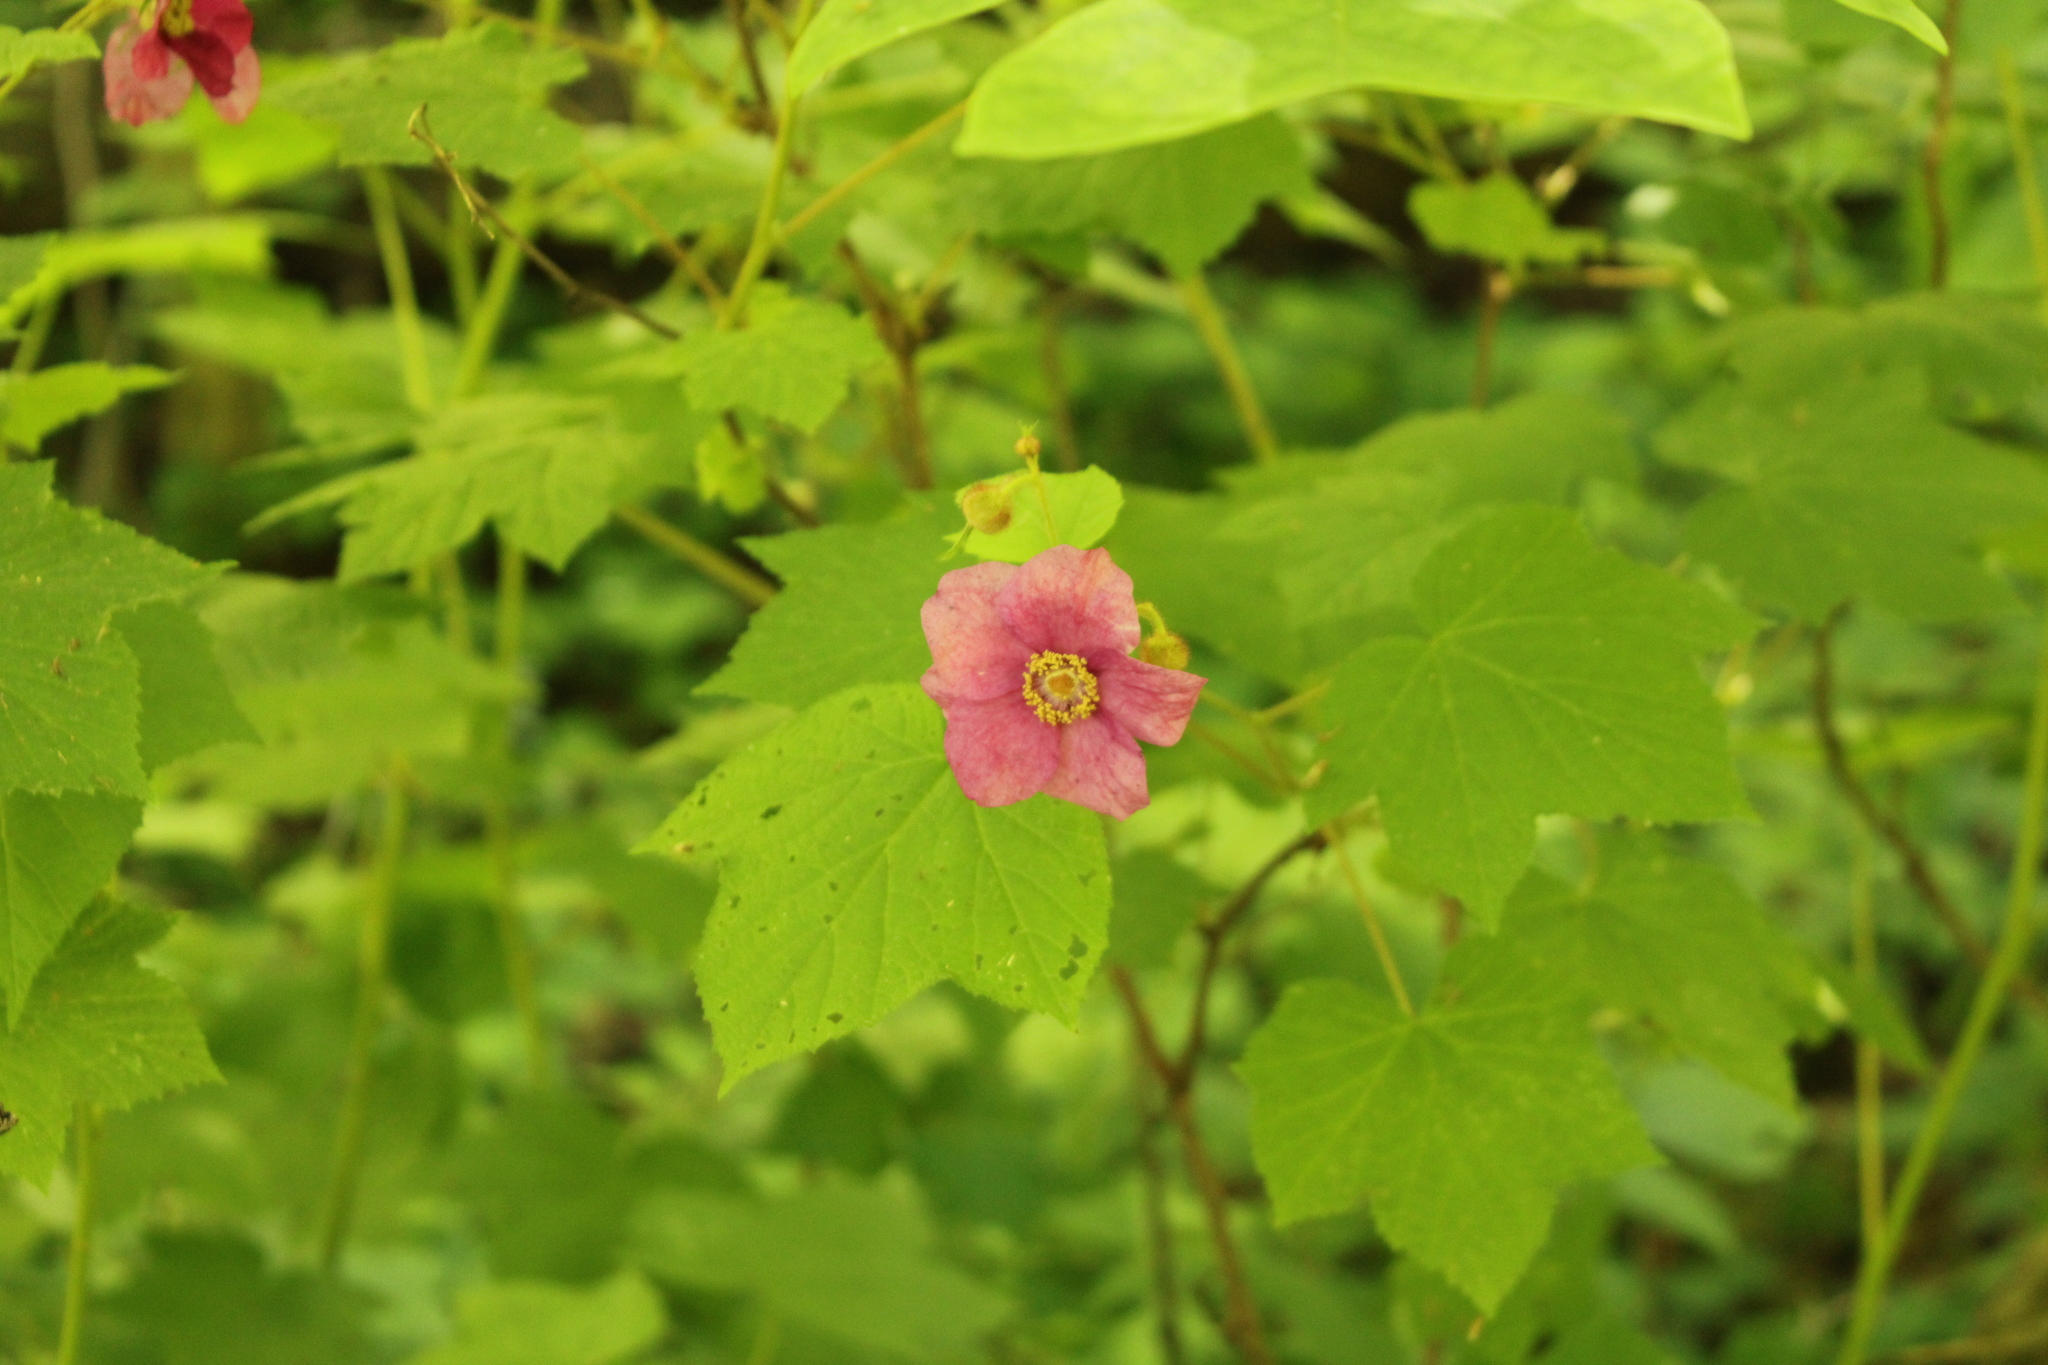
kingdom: Plantae
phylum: Tracheophyta
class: Magnoliopsida
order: Rosales
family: Rosaceae
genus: Rubus
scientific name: Rubus odoratus
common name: Purple-flowered raspberry
